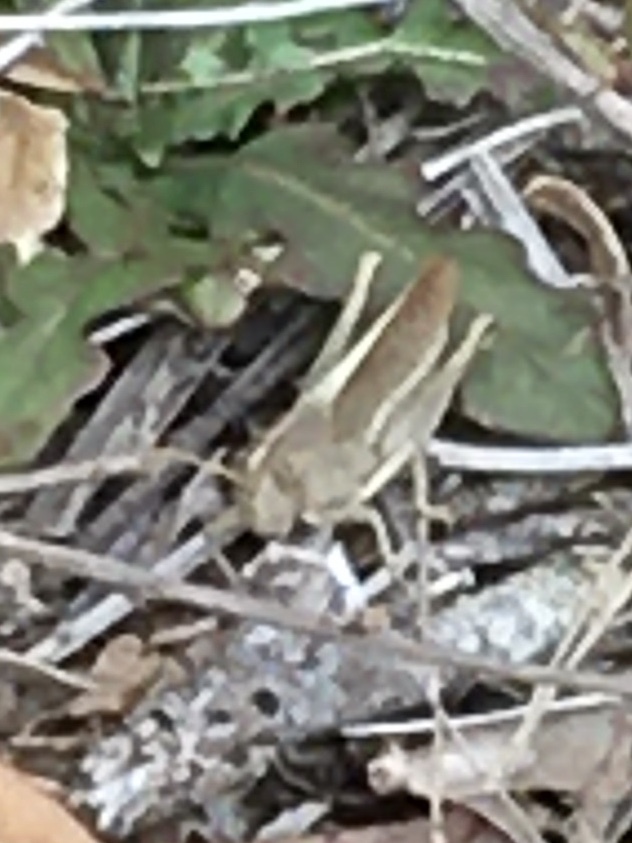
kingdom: Animalia
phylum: Arthropoda
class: Insecta
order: Orthoptera
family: Acrididae
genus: Schistocerca
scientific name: Schistocerca damnifica
